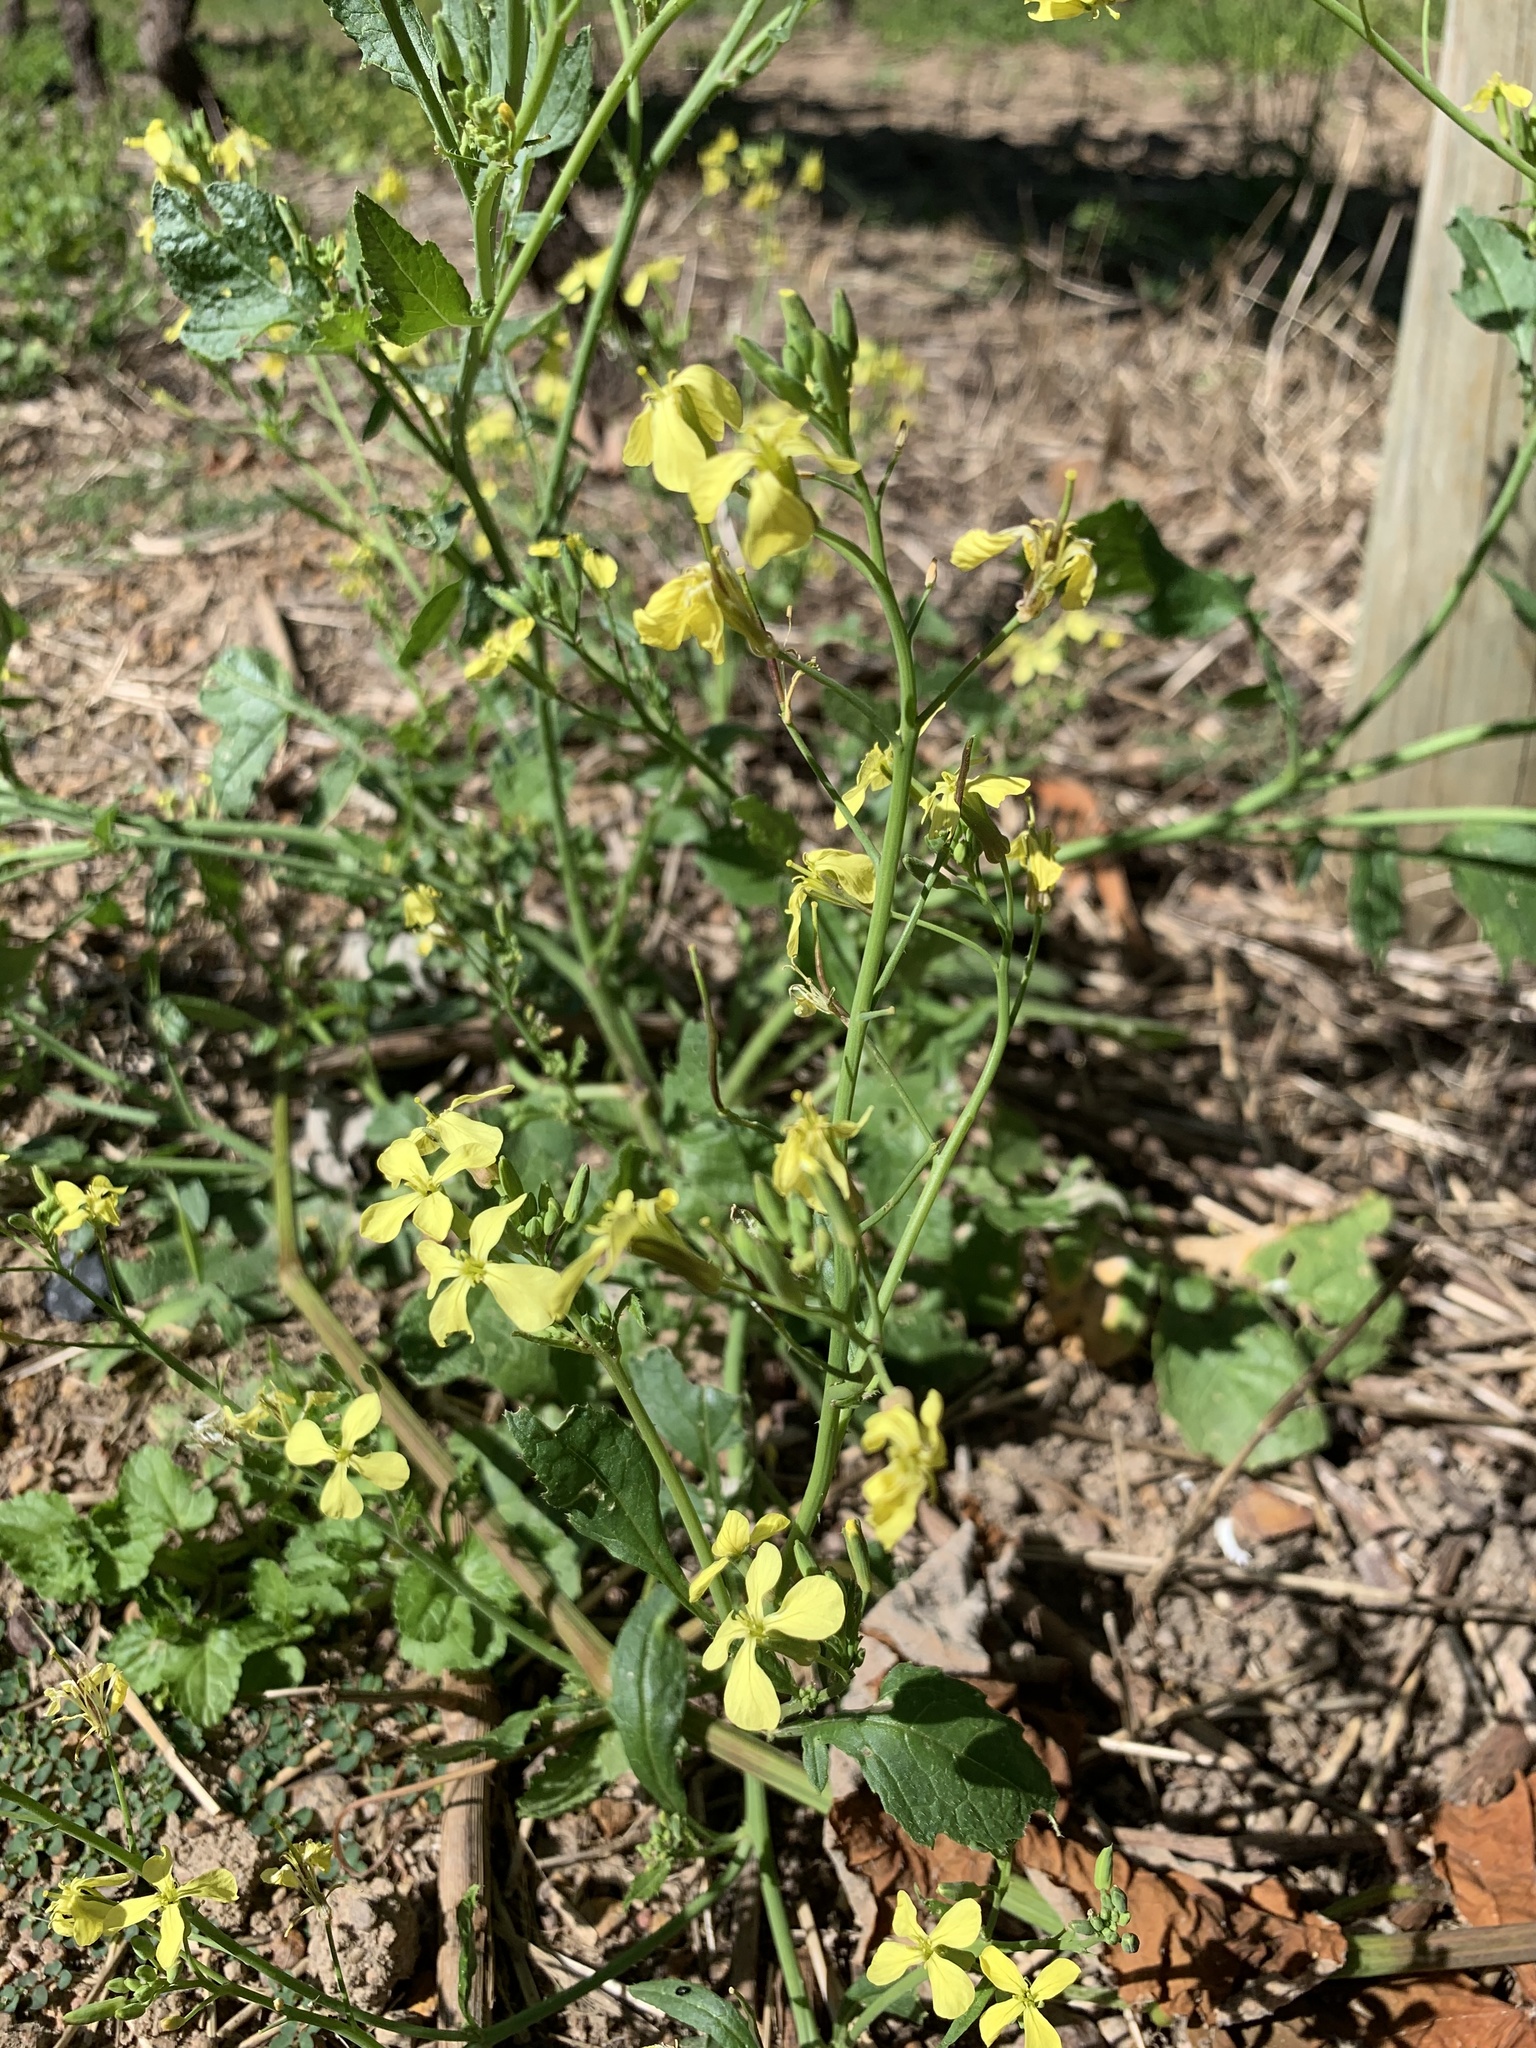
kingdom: Plantae
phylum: Tracheophyta
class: Magnoliopsida
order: Brassicales
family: Brassicaceae
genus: Raphanus
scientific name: Raphanus raphanistrum
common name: Wild radish
